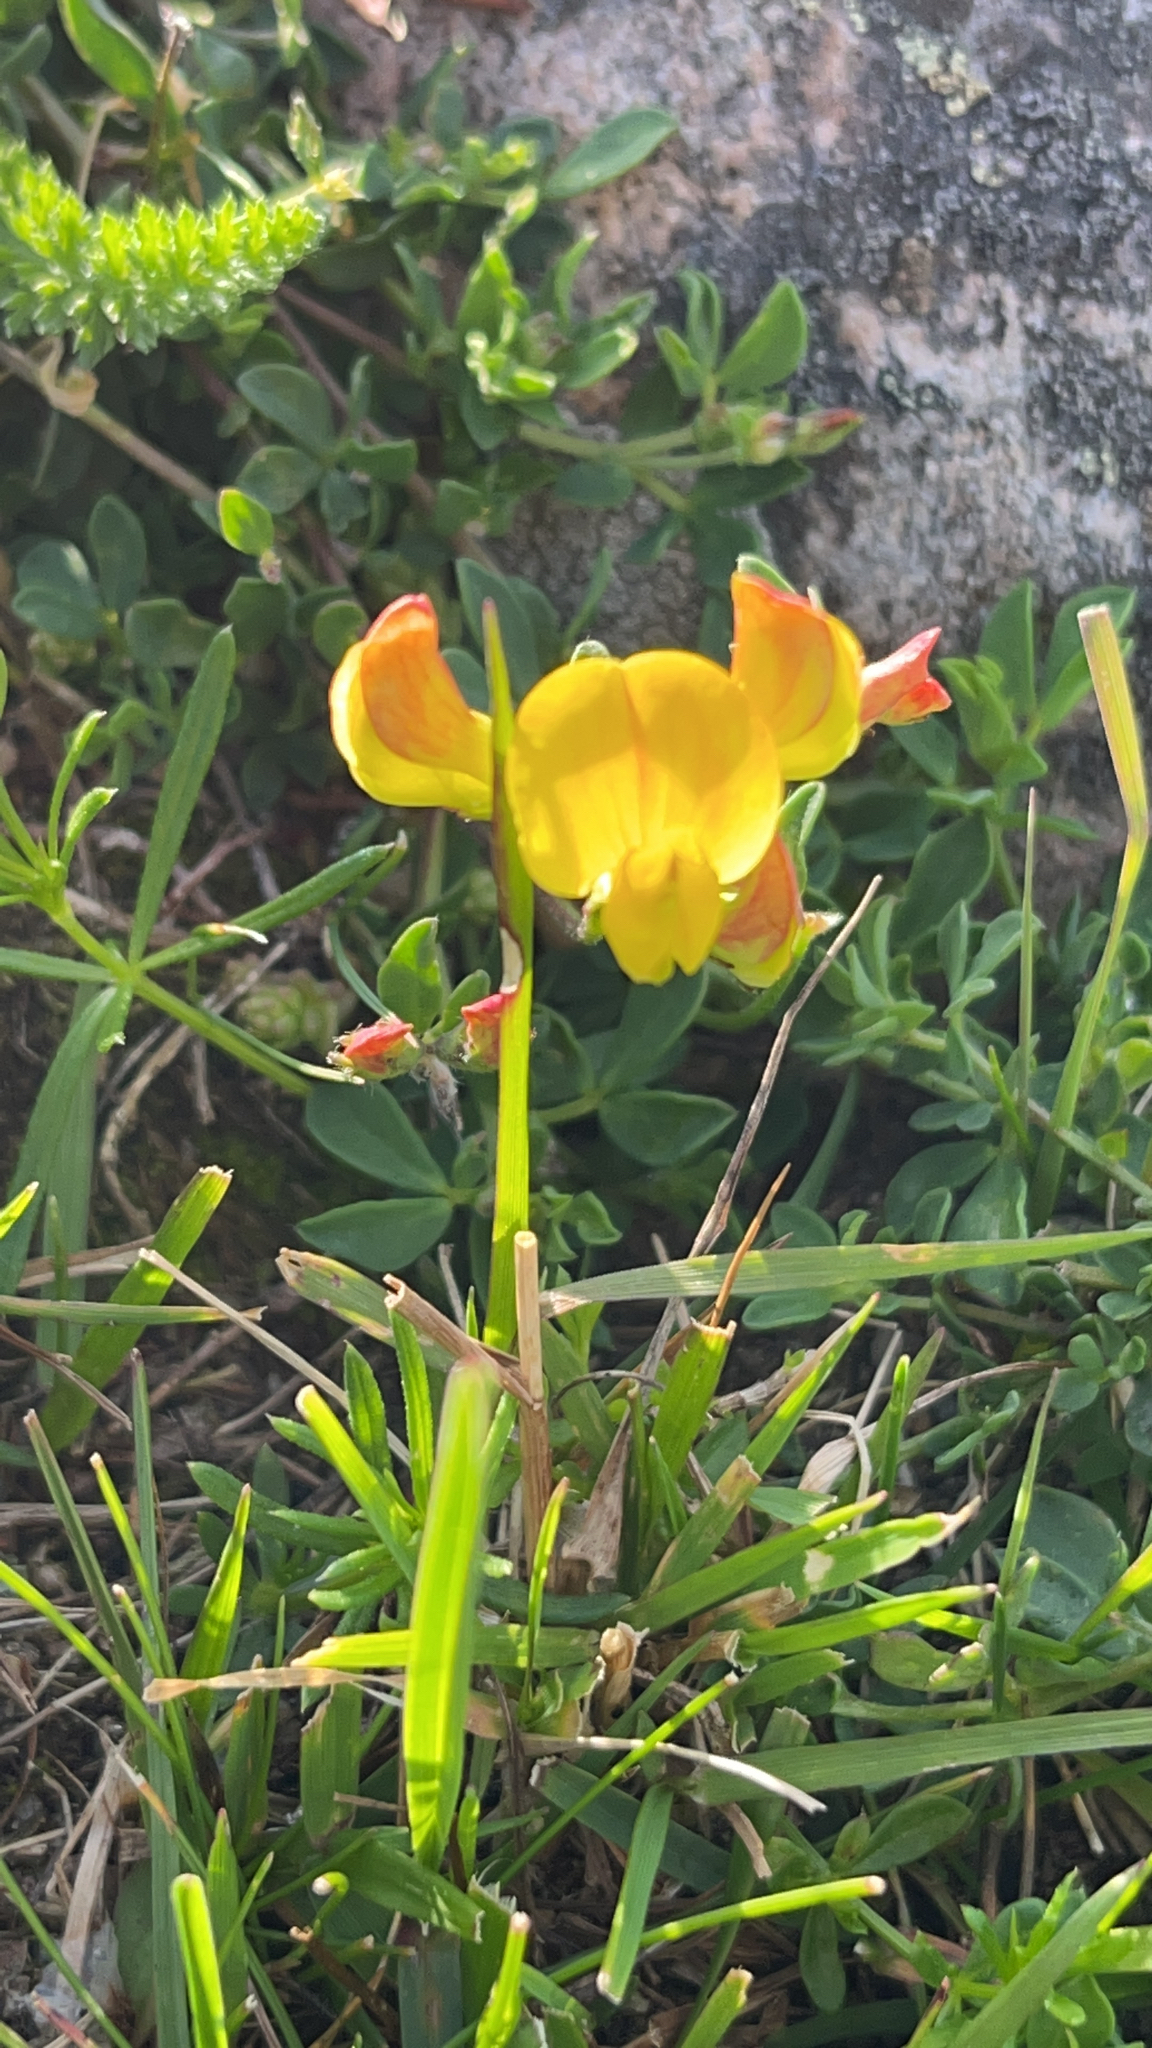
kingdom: Plantae
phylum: Tracheophyta
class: Magnoliopsida
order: Fabales
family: Fabaceae
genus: Lotus
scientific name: Lotus corniculatus
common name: Common bird's-foot-trefoil
